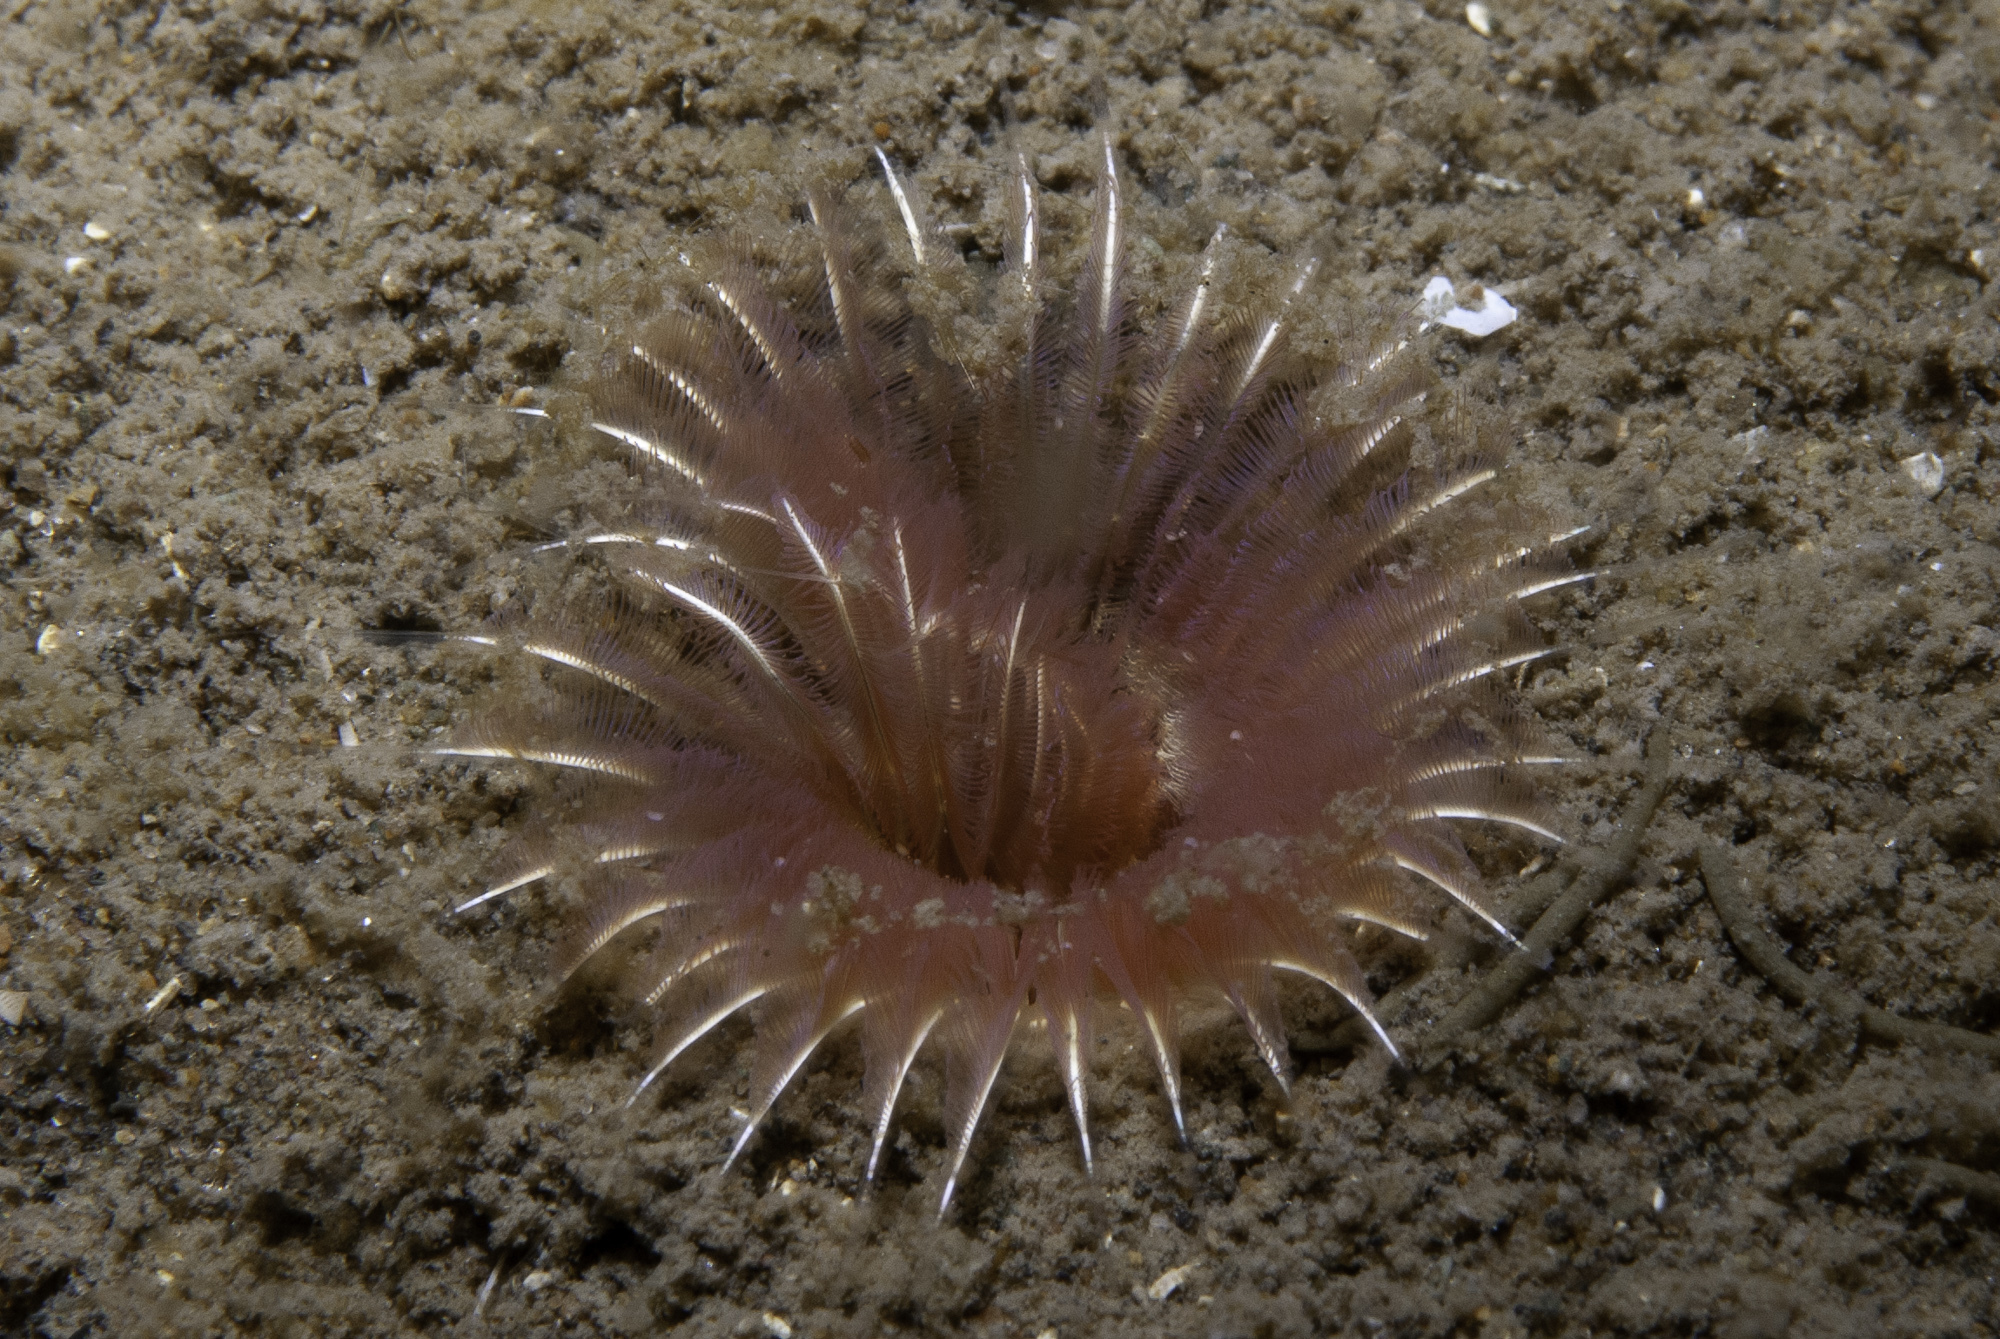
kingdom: Animalia
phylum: Annelida
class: Polychaeta
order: Sabellida
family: Sabellidae
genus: Chone
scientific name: Chone infundibuliformis
